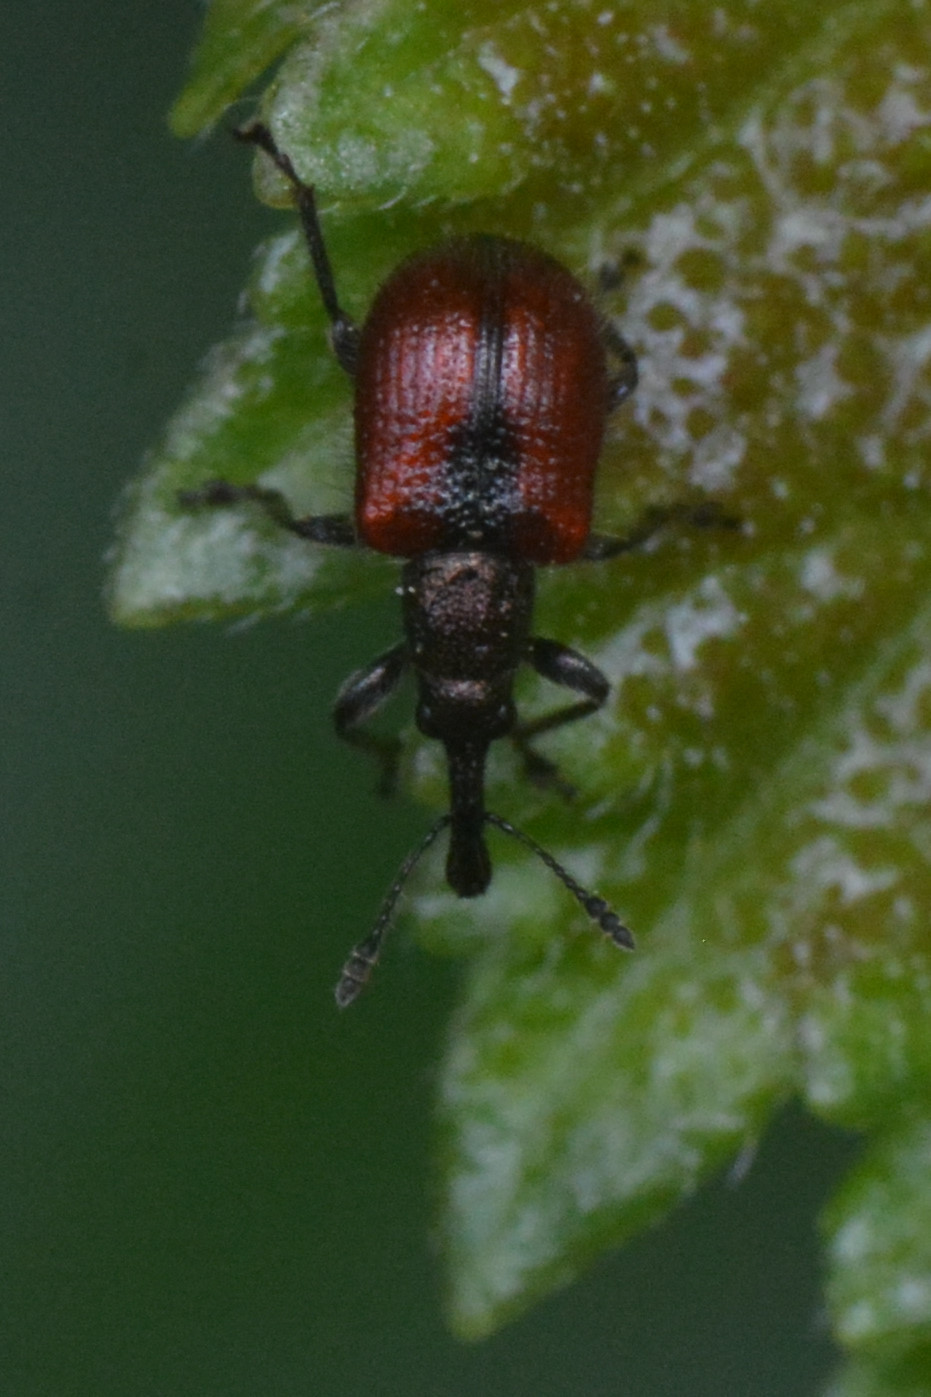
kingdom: Animalia
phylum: Arthropoda
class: Insecta
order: Coleoptera
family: Rhynchitidae
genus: Tatianaerhynchites
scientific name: Tatianaerhynchites aequatus
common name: Apple fruit rhynchites
